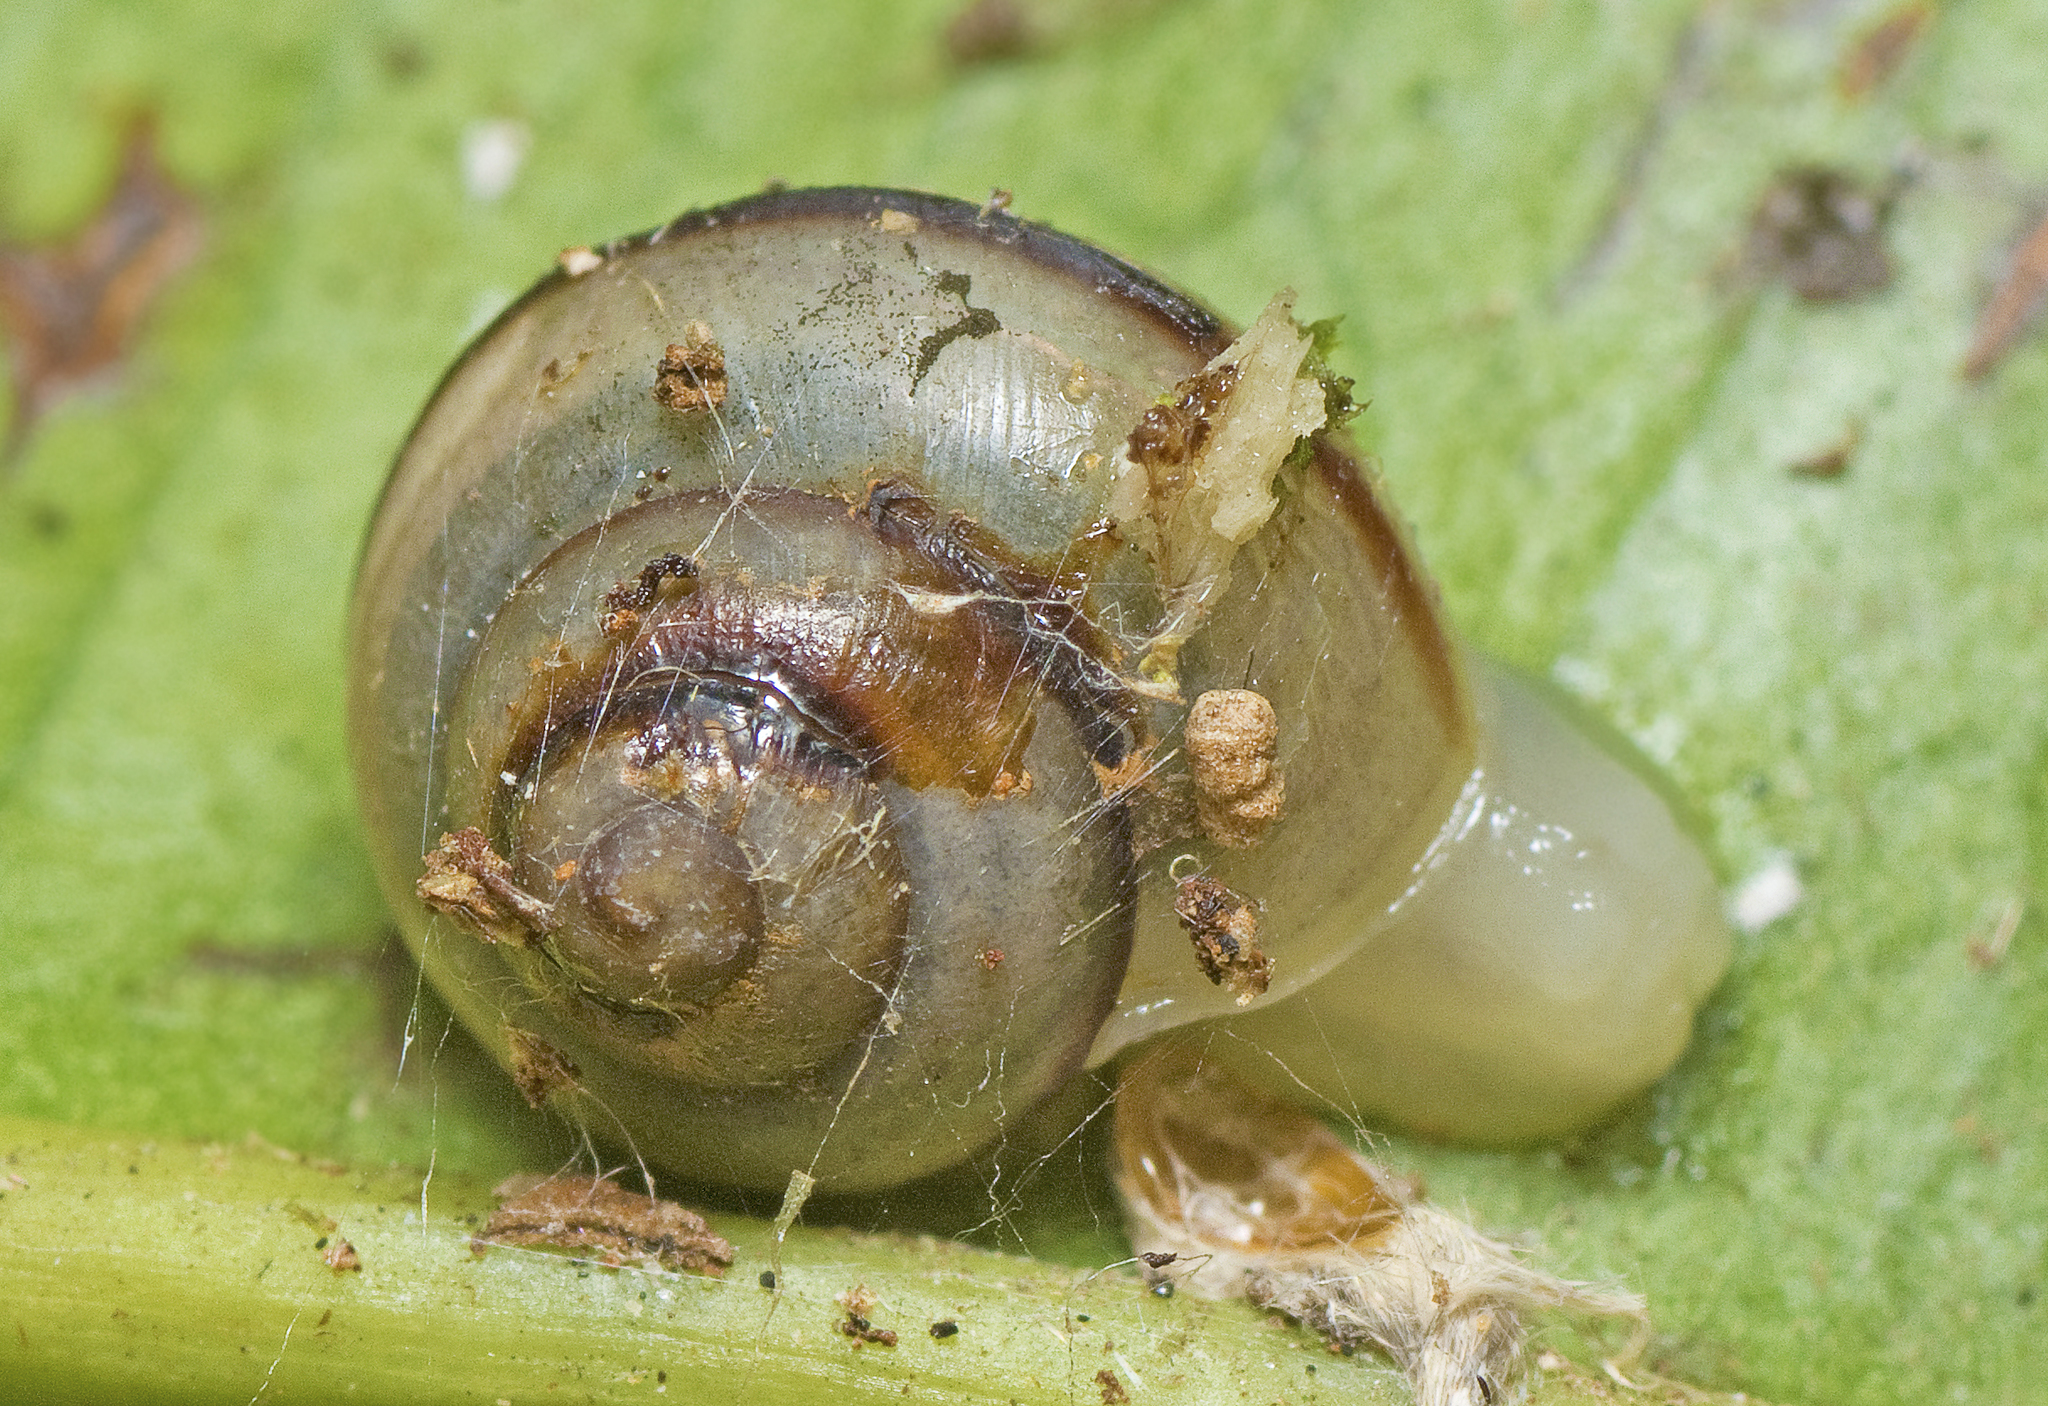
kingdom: Animalia
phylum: Mollusca
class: Gastropoda
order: Stylommatophora
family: Camaenidae
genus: Posorites
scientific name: Posorites conscendens
